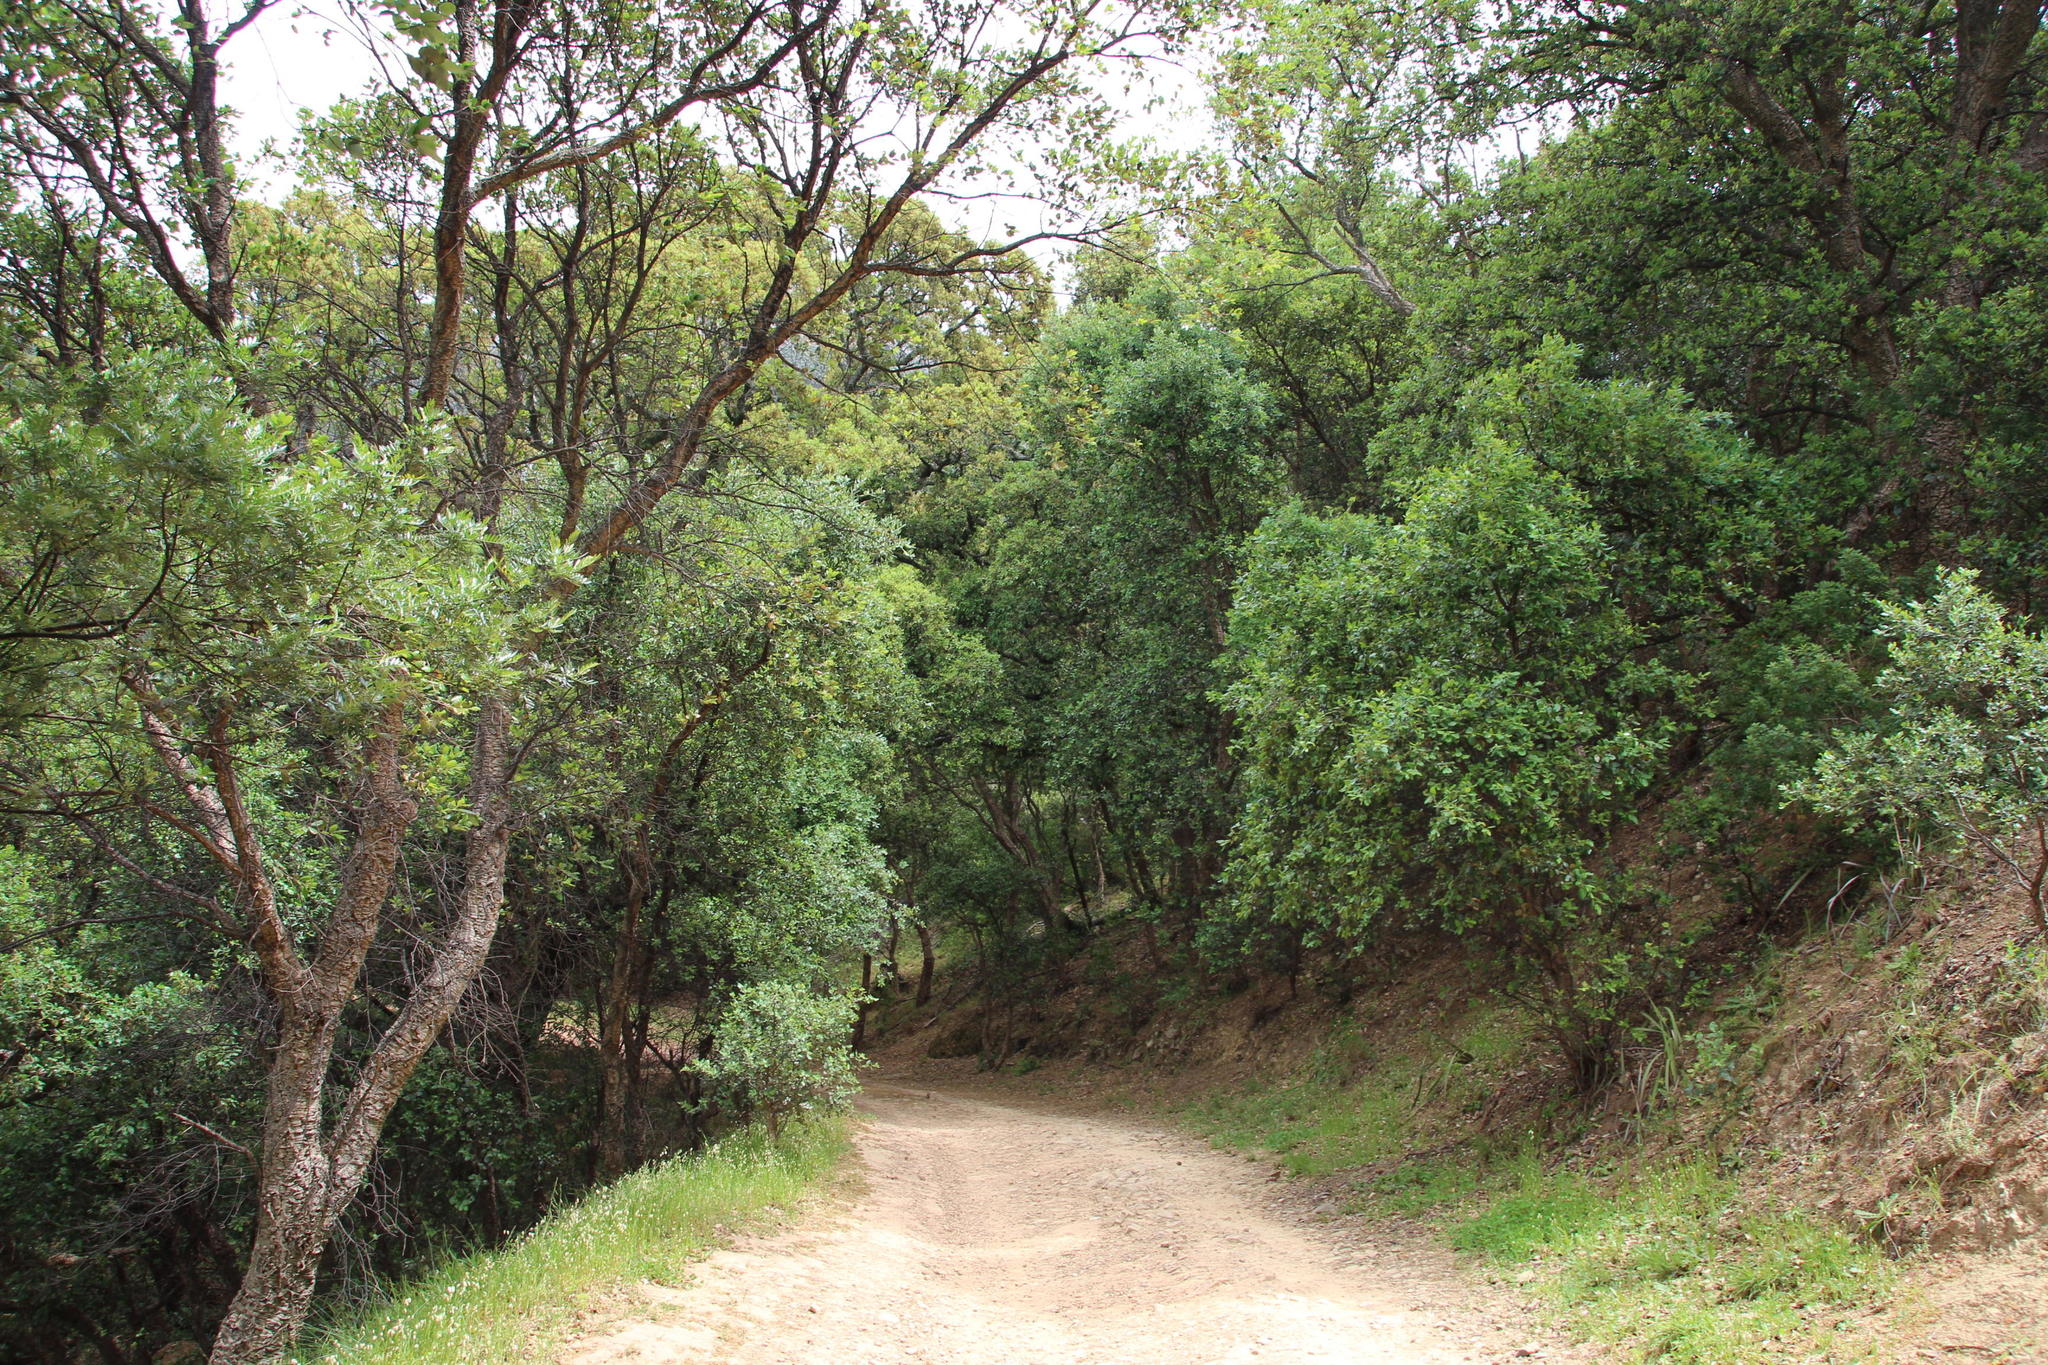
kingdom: Plantae
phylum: Tracheophyta
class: Magnoliopsida
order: Fagales
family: Fagaceae
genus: Quercus
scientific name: Quercus suber
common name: Cork oak
